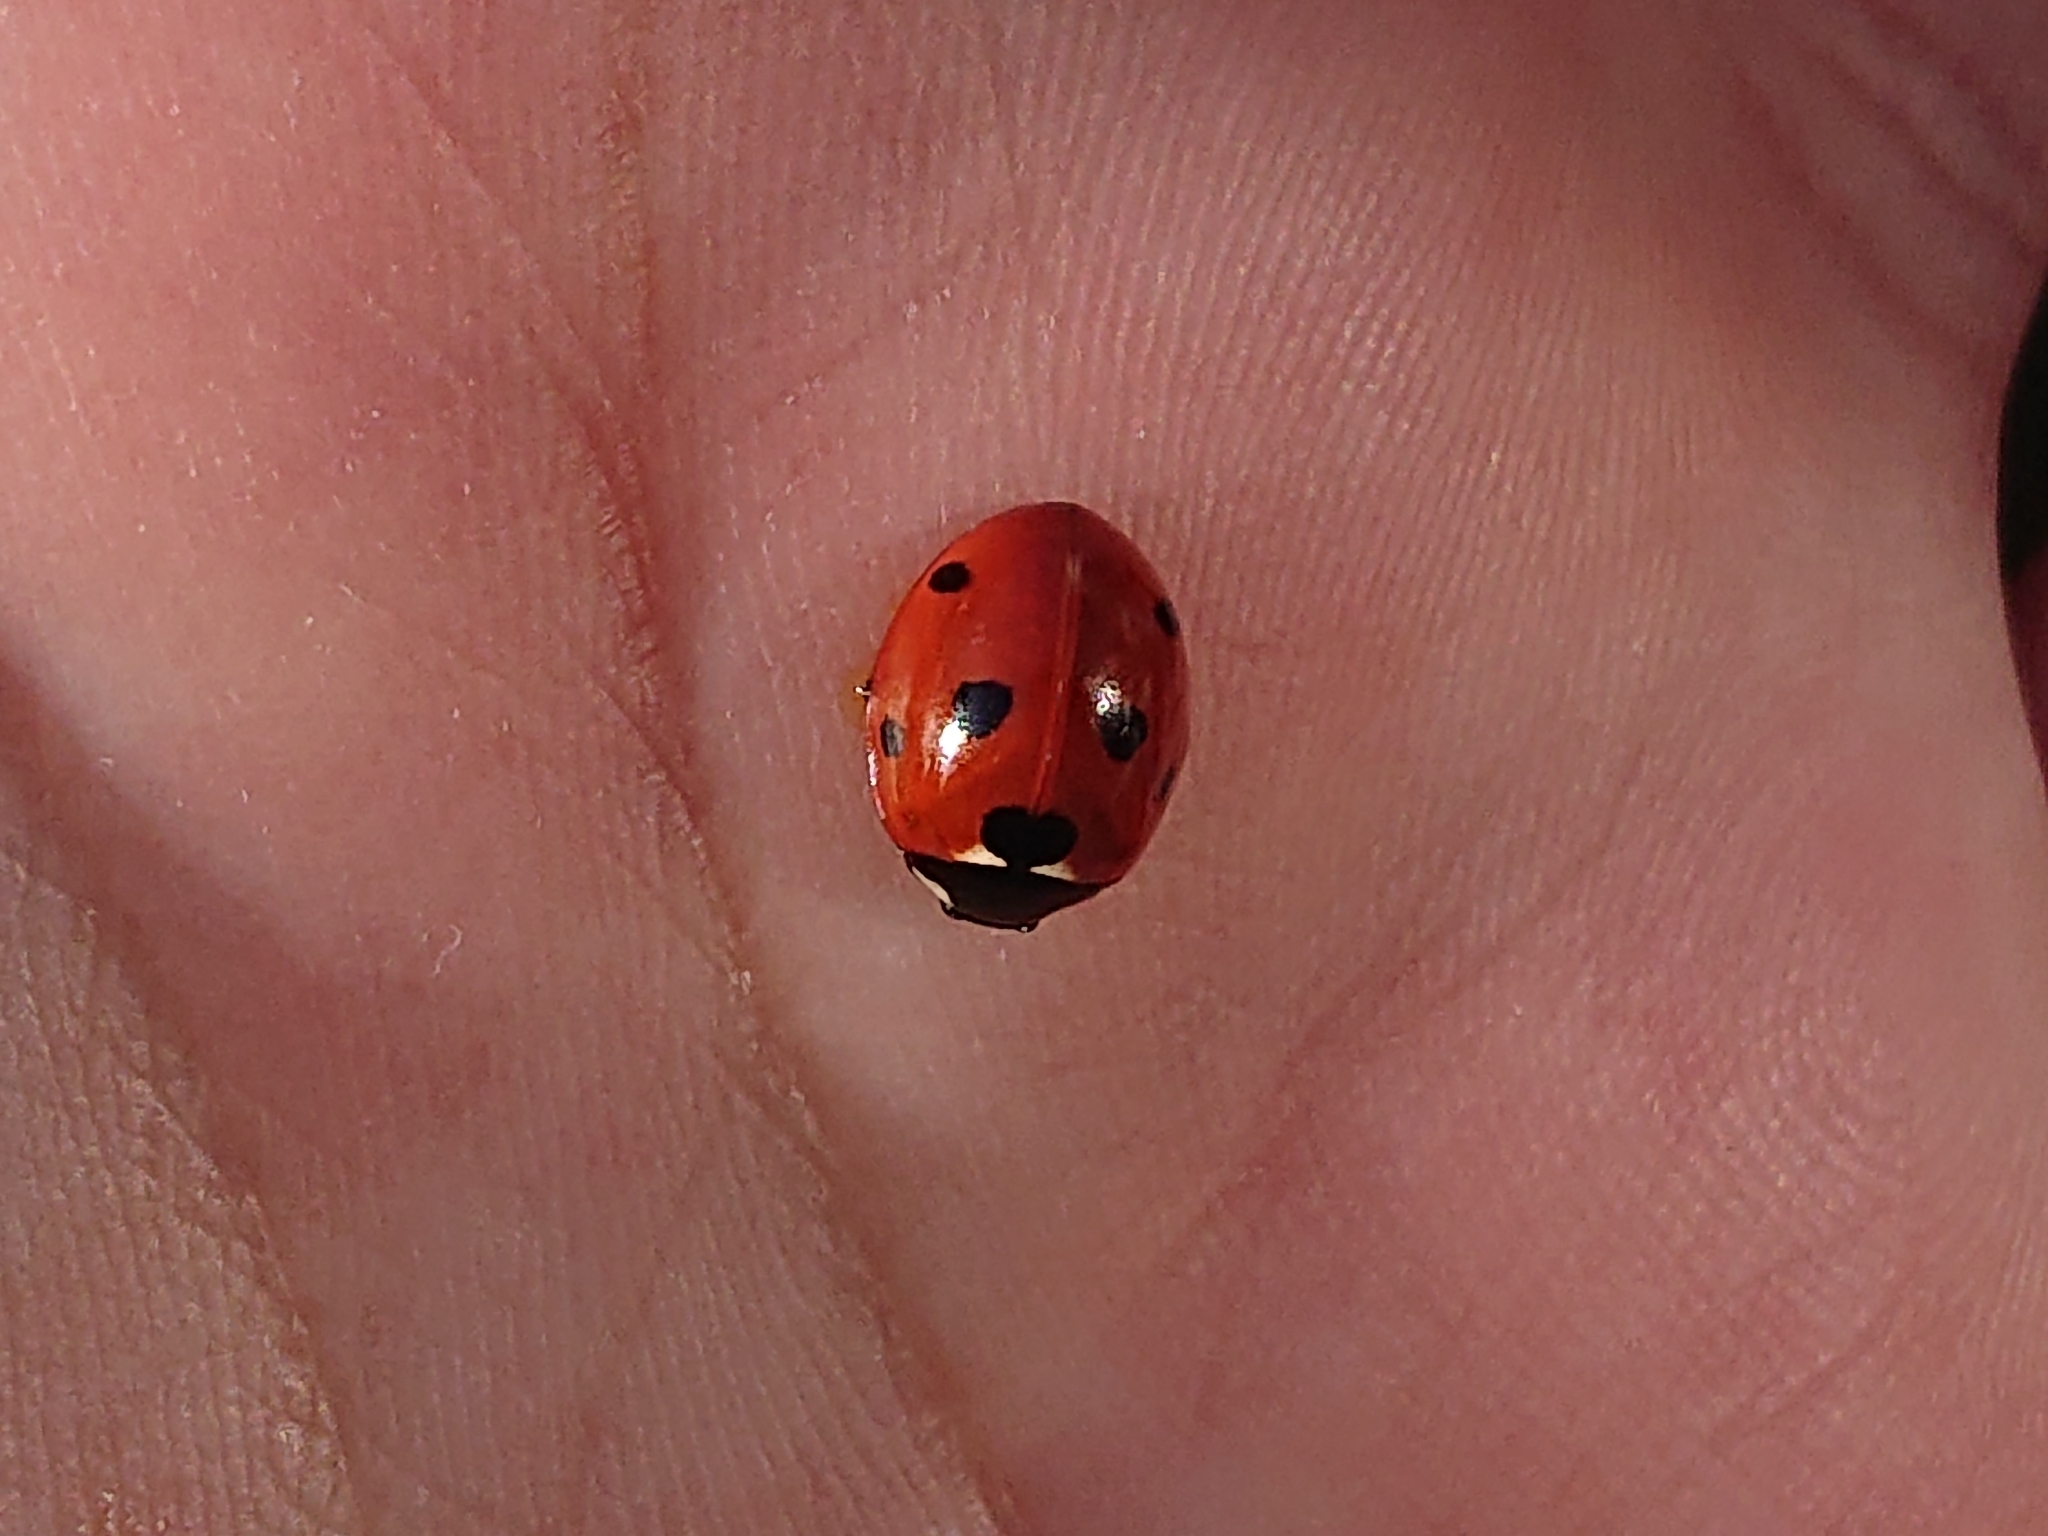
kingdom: Animalia
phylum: Arthropoda
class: Insecta
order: Coleoptera
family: Coccinellidae
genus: Coccinella
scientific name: Coccinella septempunctata
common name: Sevenspotted lady beetle
